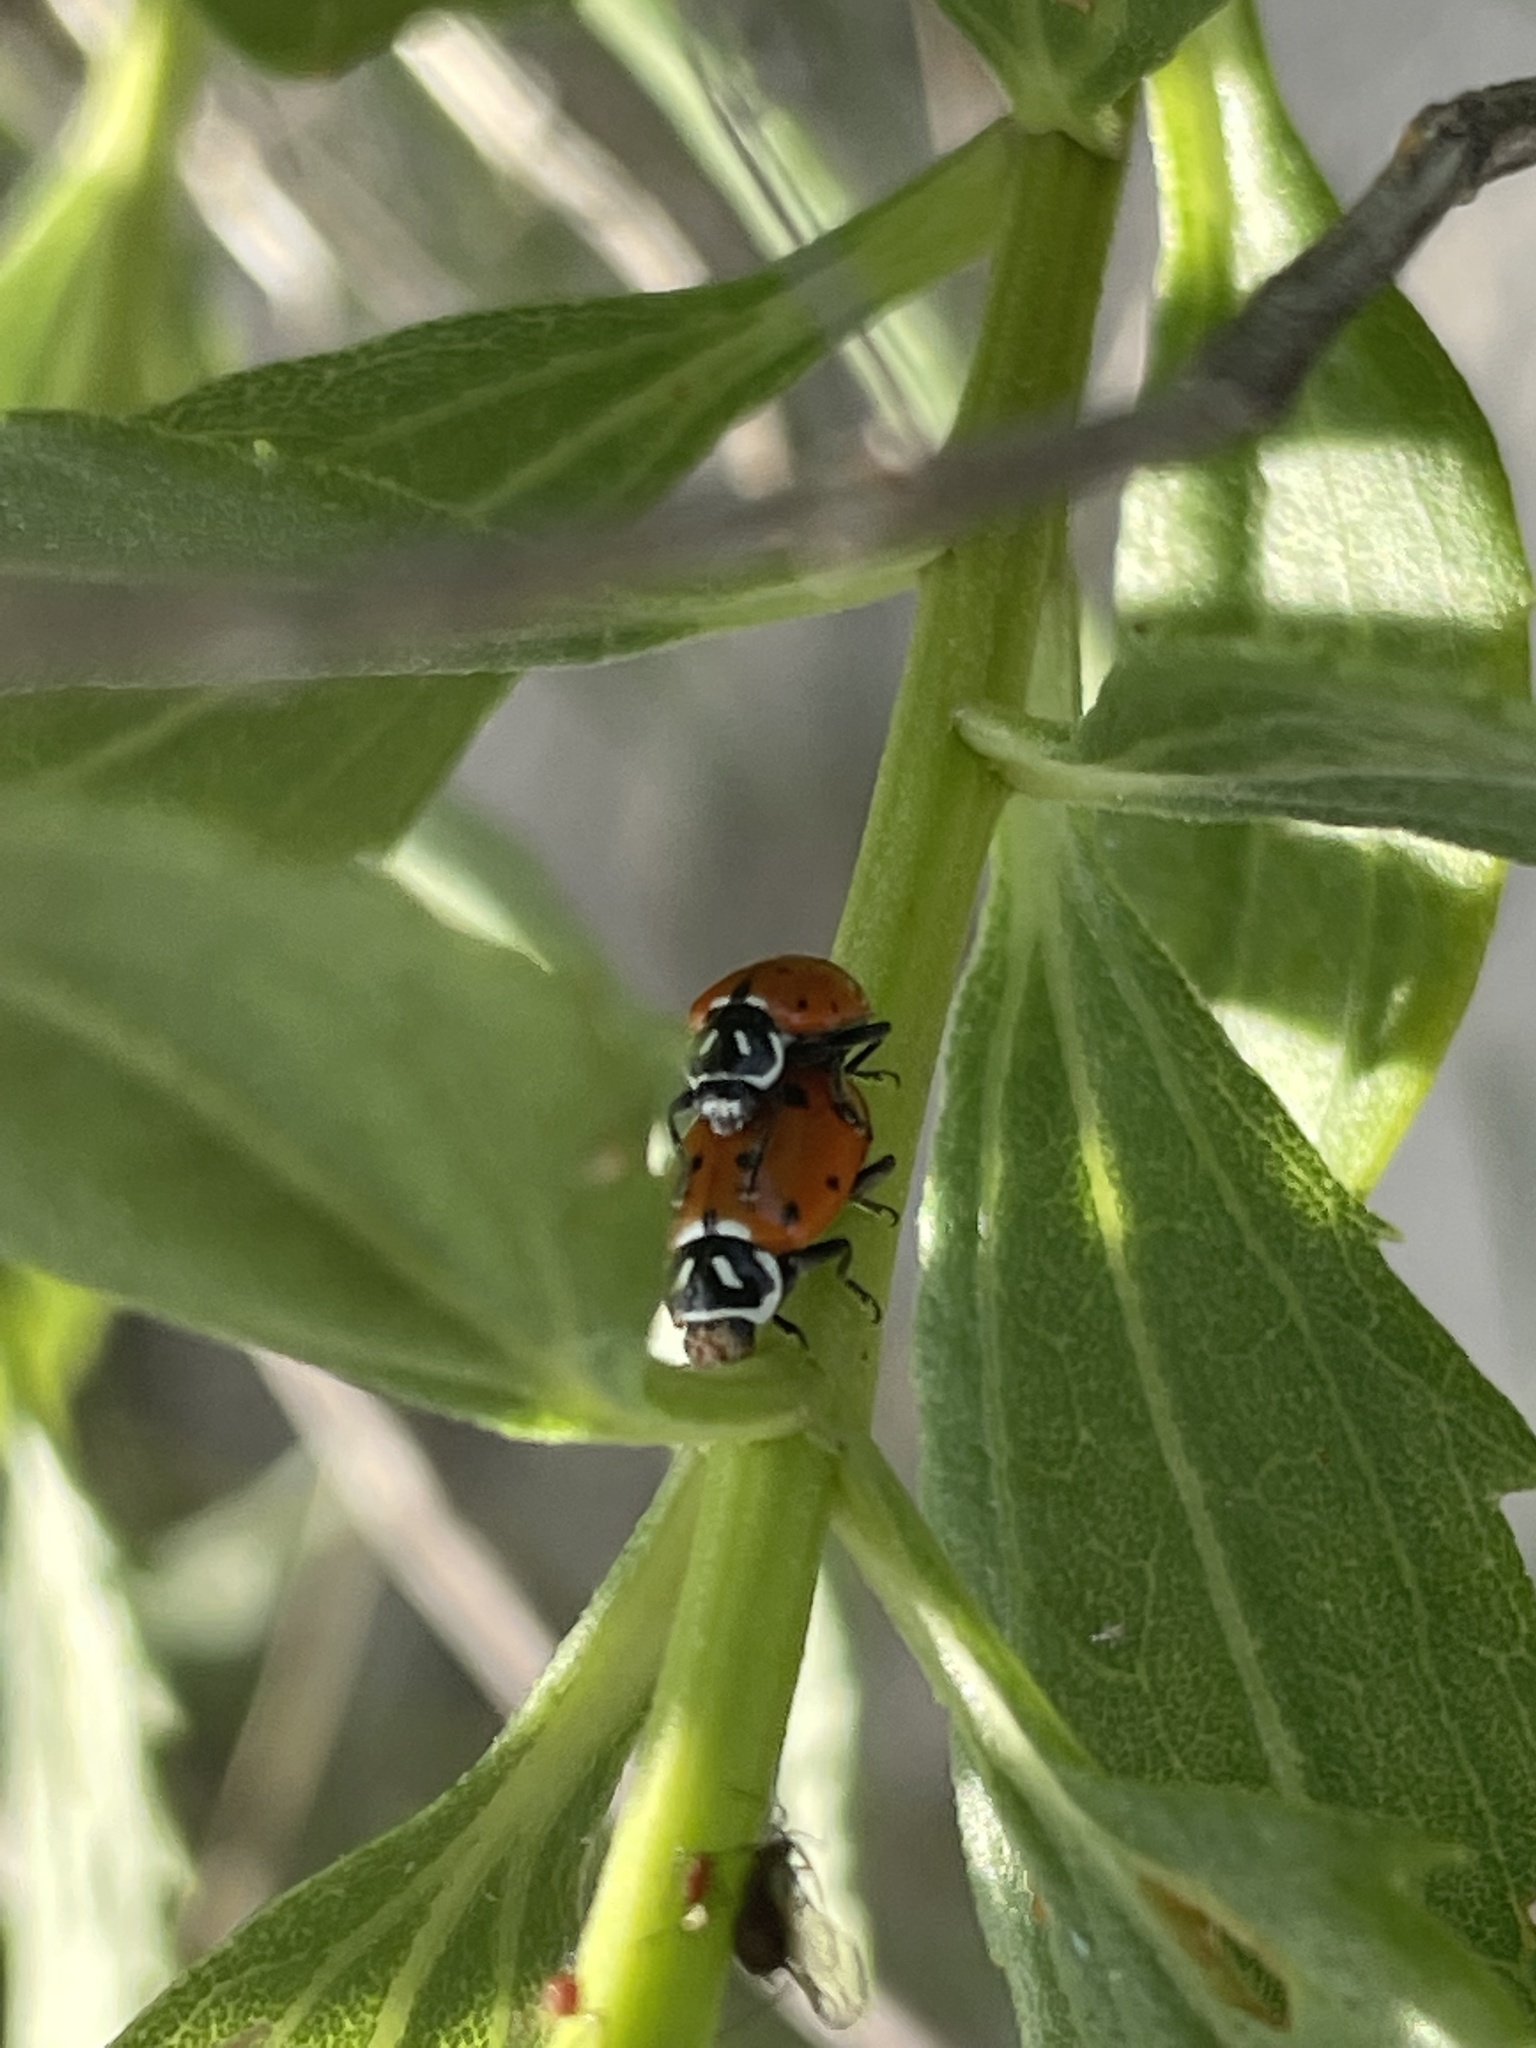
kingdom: Animalia
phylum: Arthropoda
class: Insecta
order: Coleoptera
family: Coccinellidae
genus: Hippodamia
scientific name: Hippodamia convergens
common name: Convergent lady beetle
